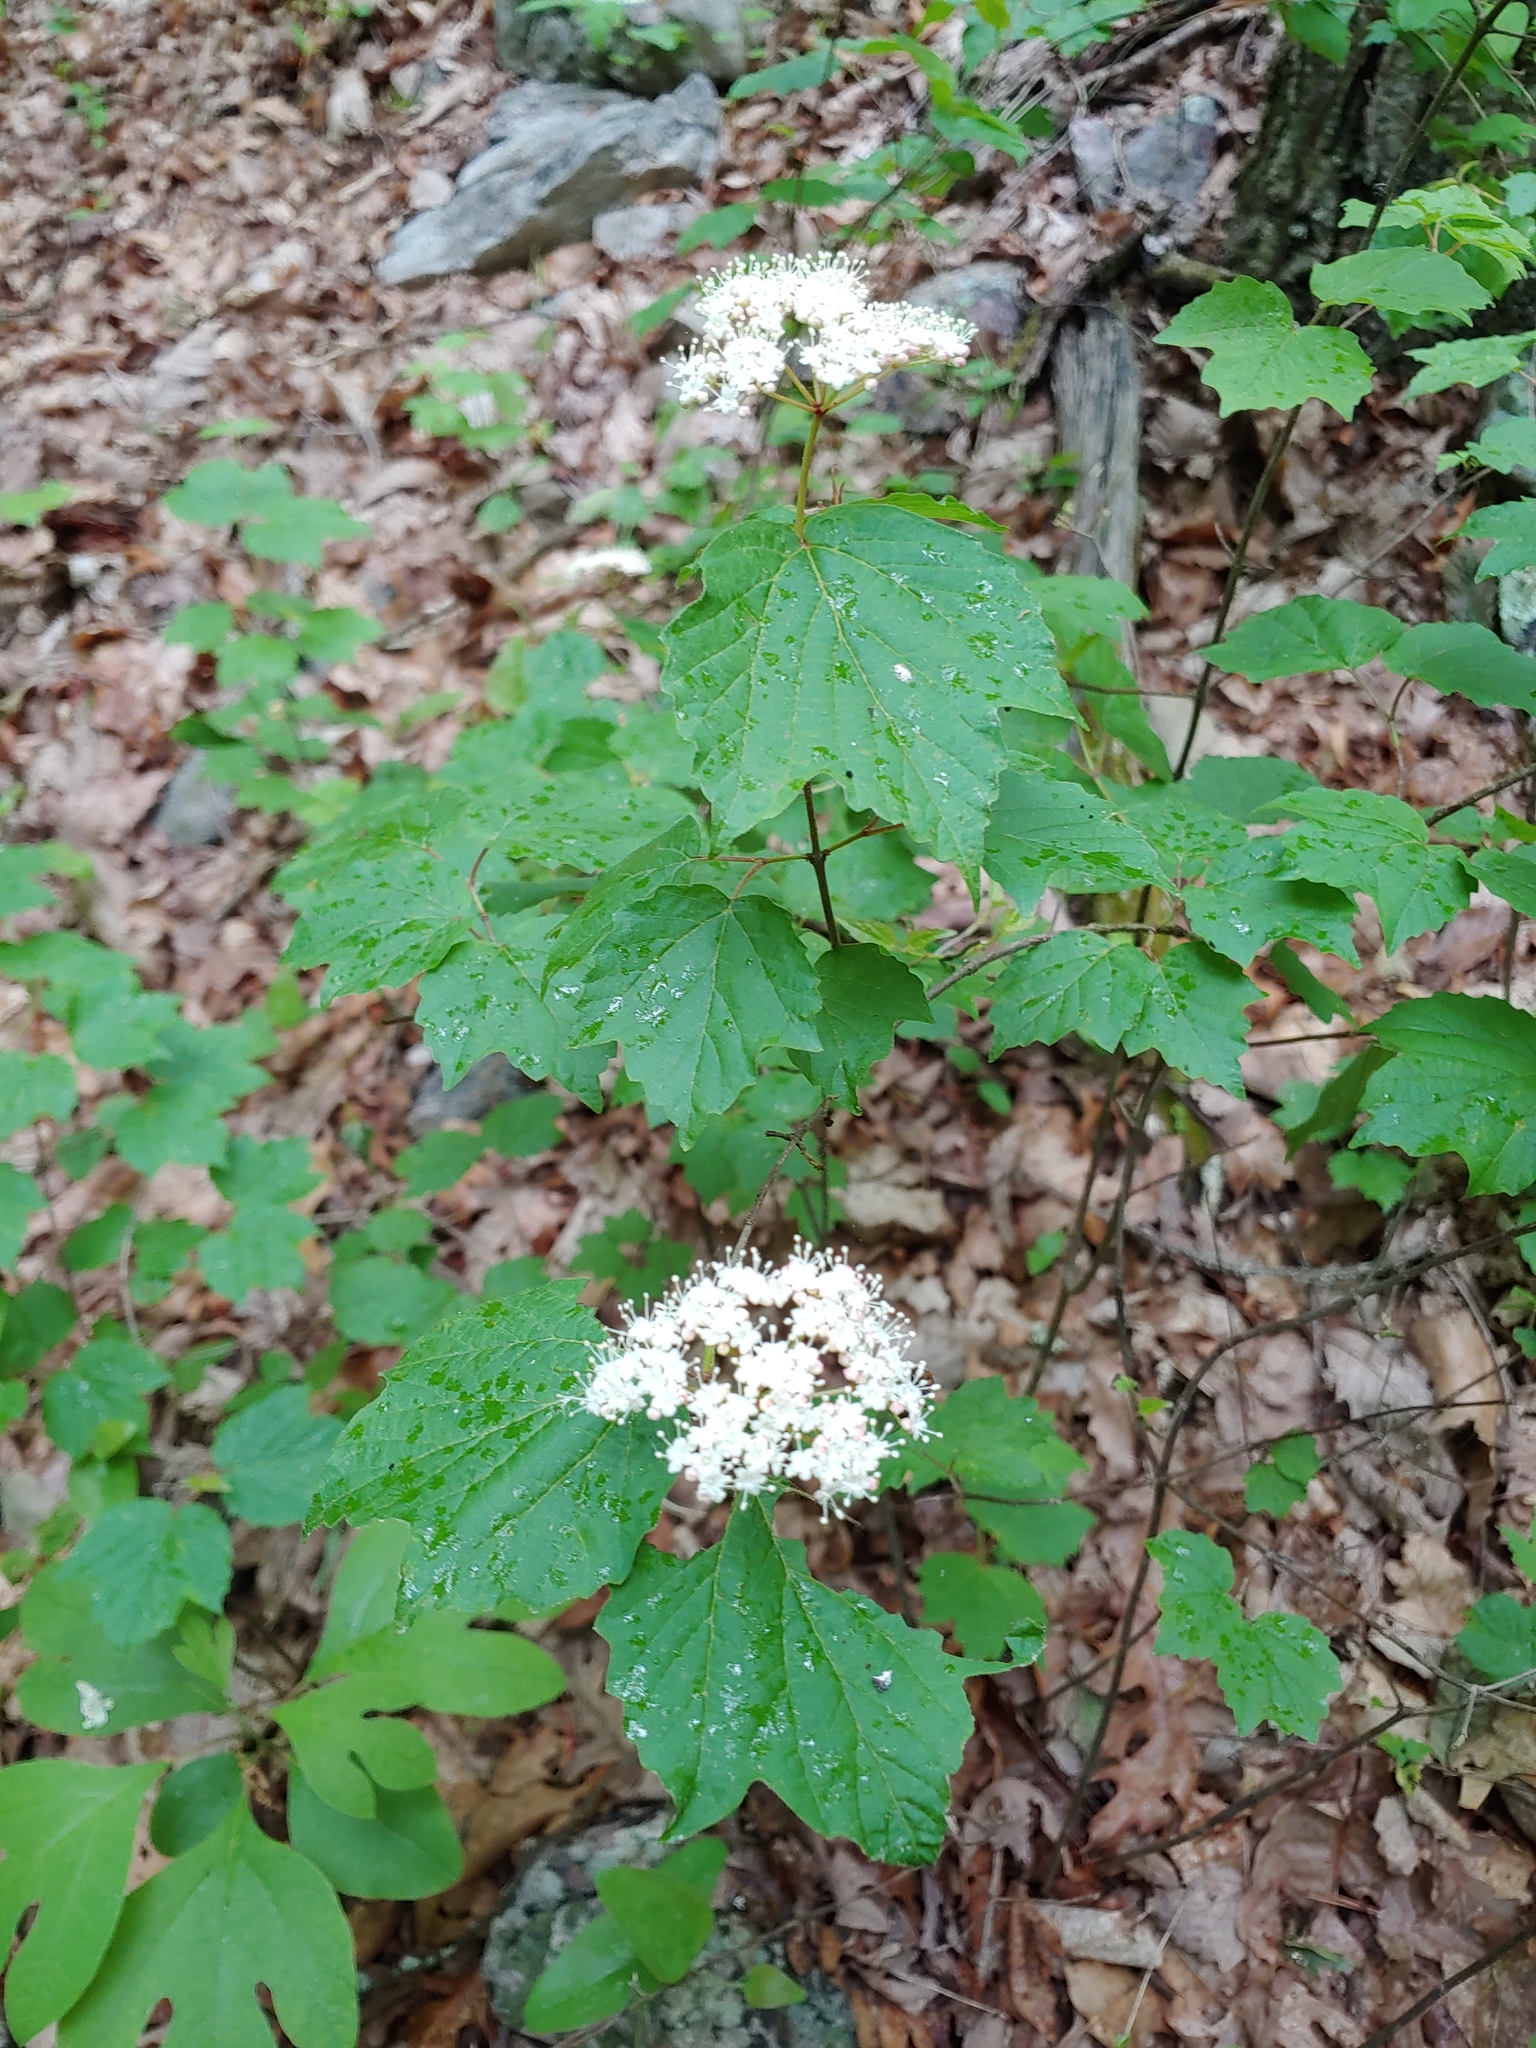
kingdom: Plantae
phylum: Tracheophyta
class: Magnoliopsida
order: Dipsacales
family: Viburnaceae
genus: Viburnum
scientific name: Viburnum acerifolium
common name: Dockmackie
